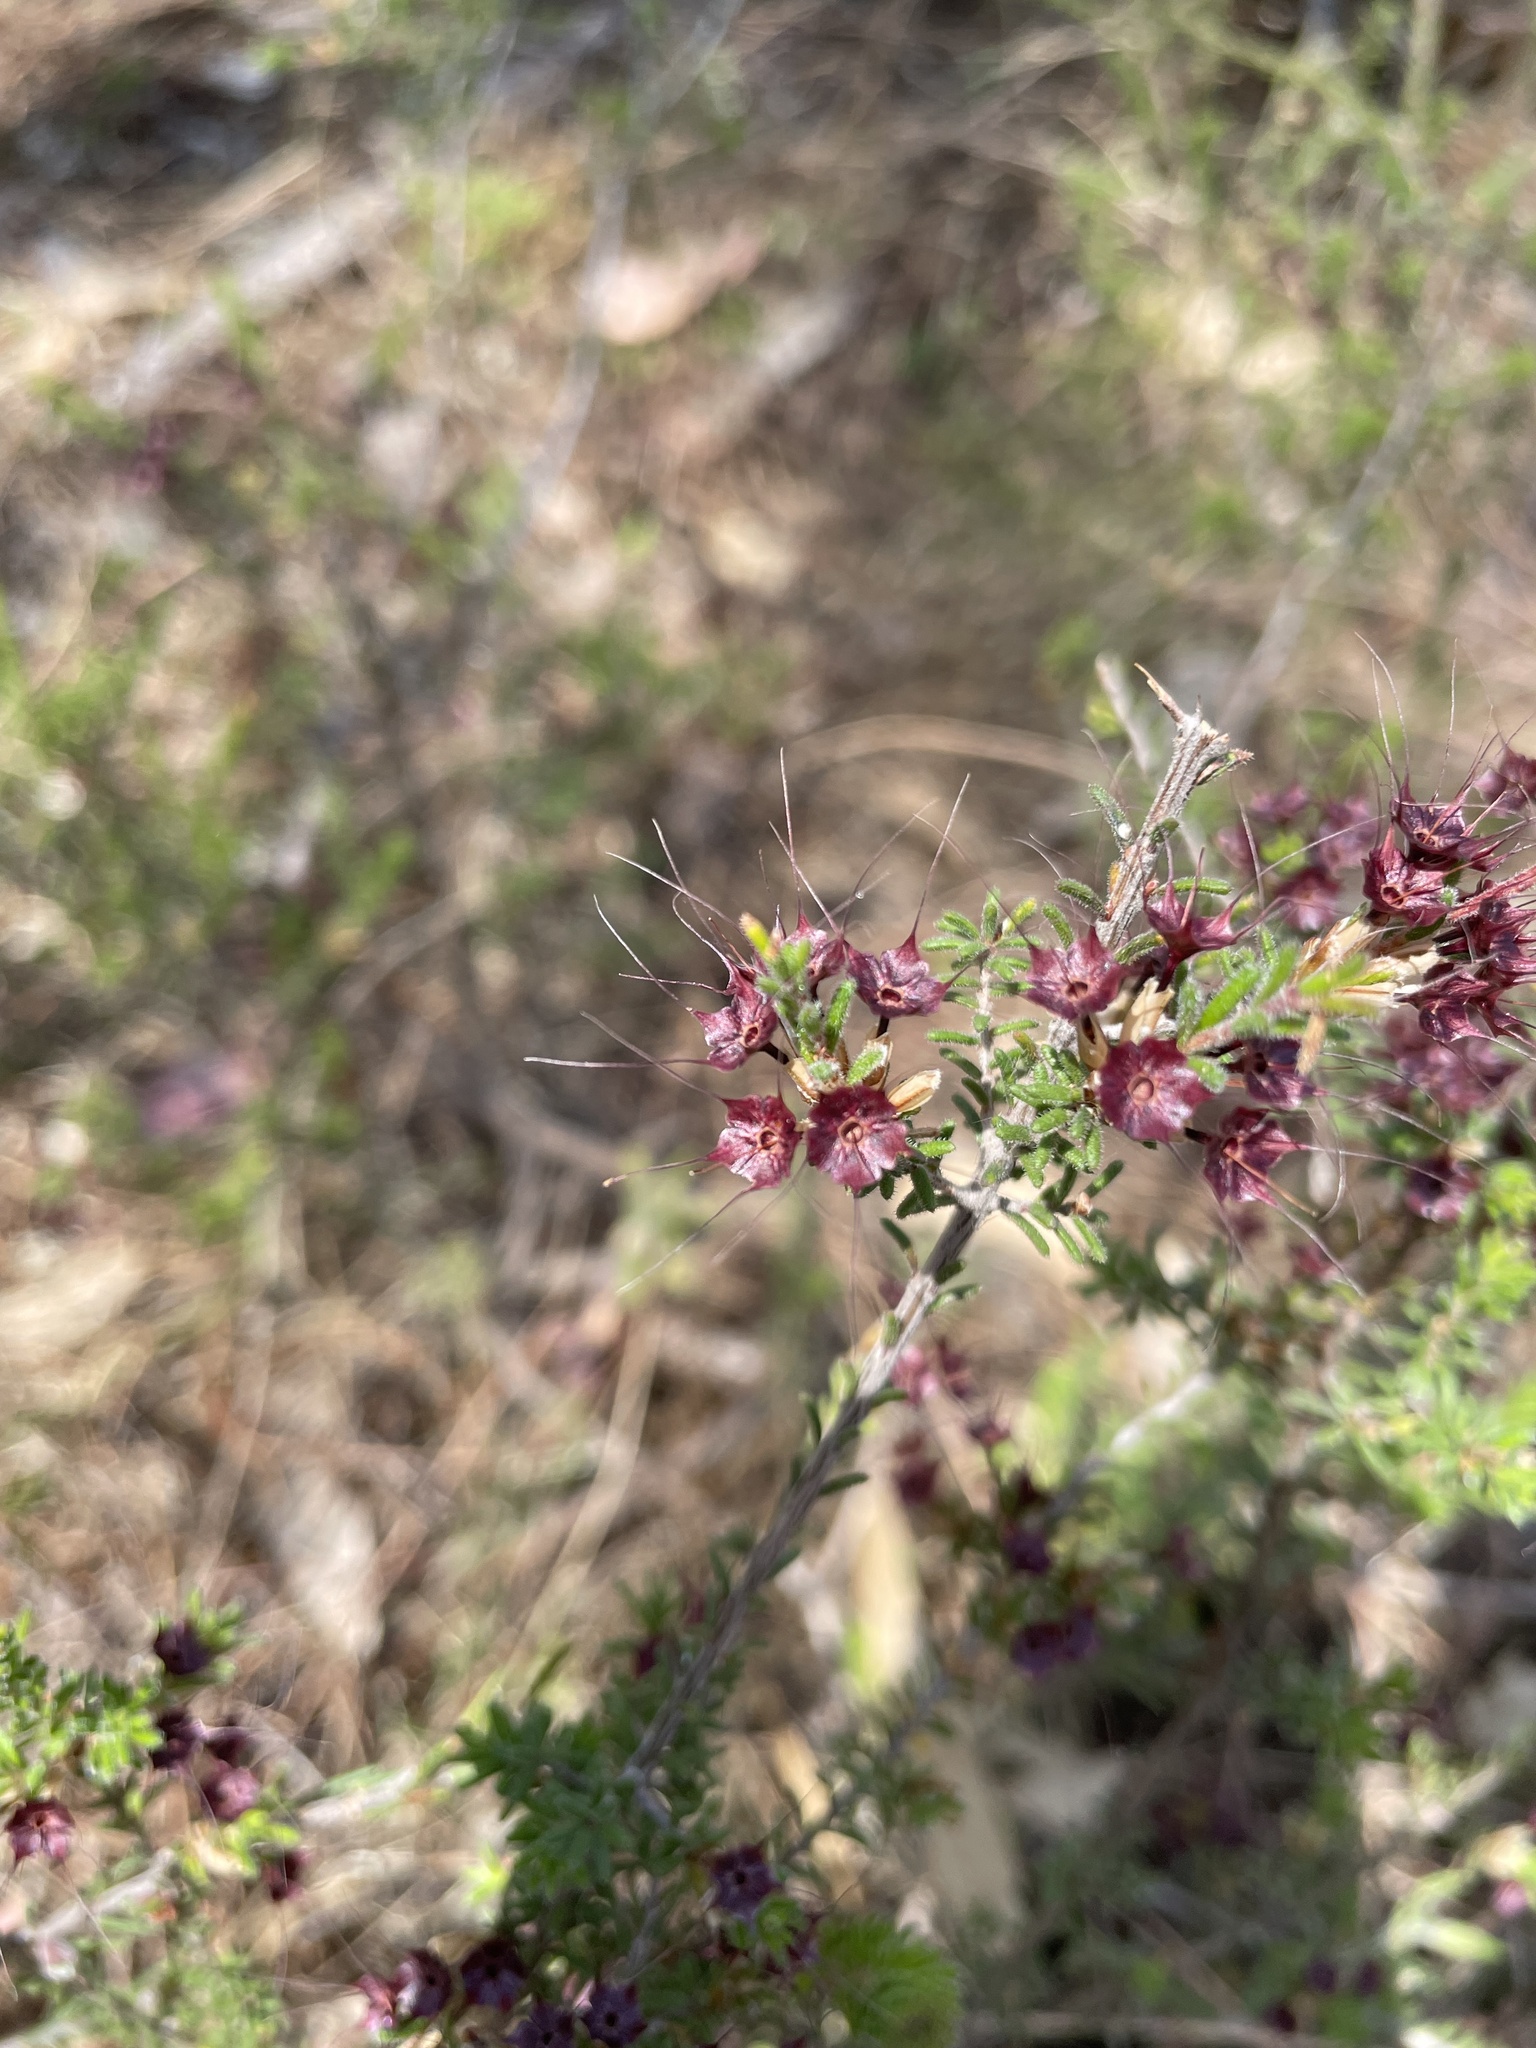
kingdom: Plantae
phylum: Tracheophyta
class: Magnoliopsida
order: Myrtales
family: Myrtaceae
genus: Calytrix
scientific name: Calytrix tetragona
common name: Common fringe myrtle
